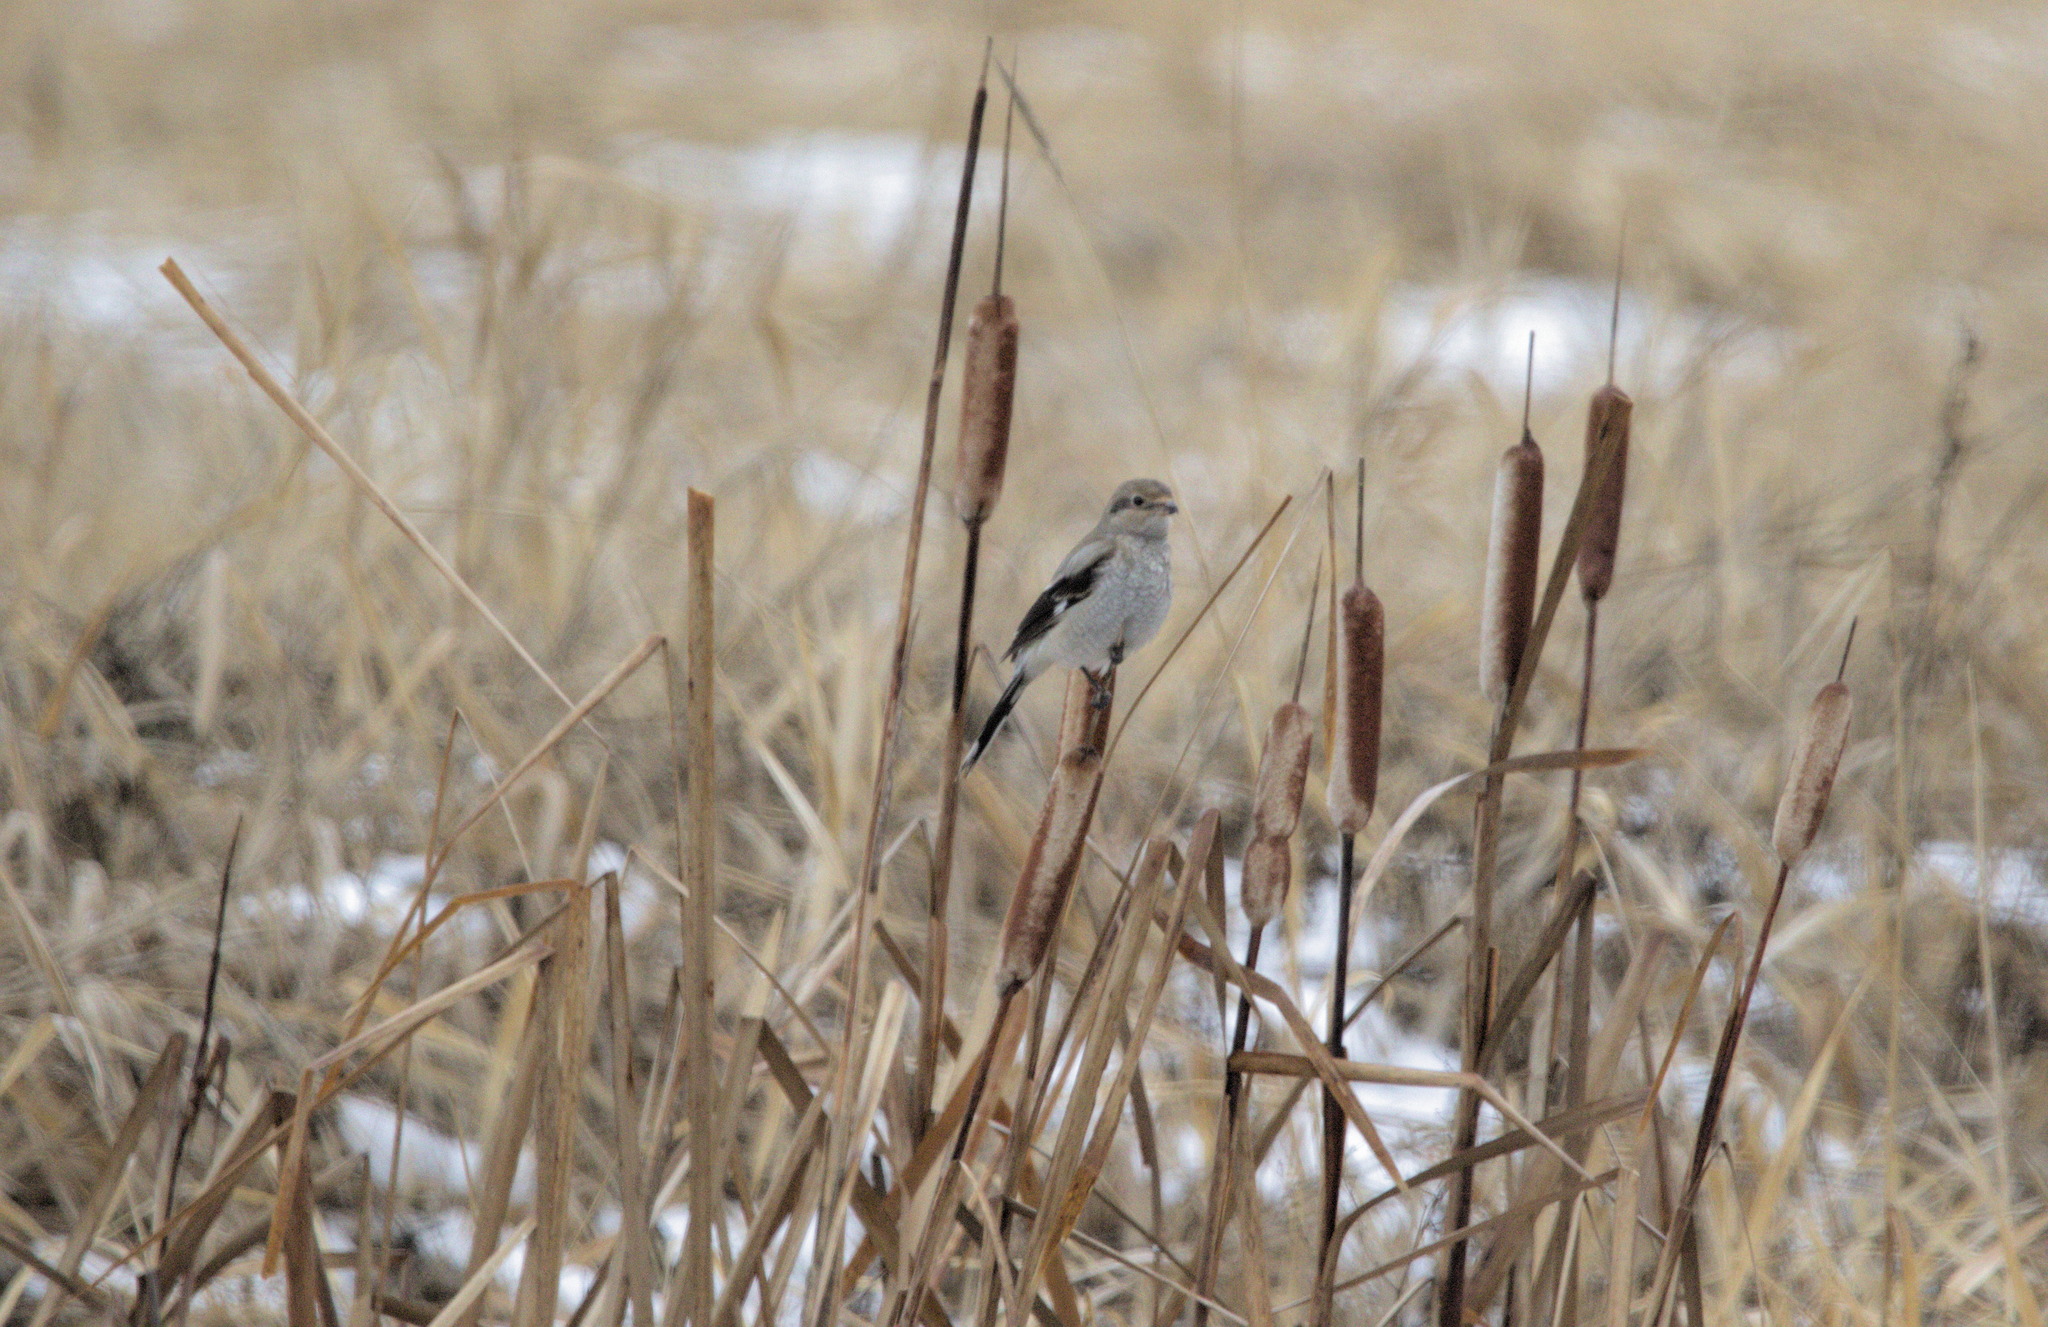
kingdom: Animalia
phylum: Chordata
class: Aves
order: Passeriformes
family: Laniidae
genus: Lanius
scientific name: Lanius borealis
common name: Northern shrike
